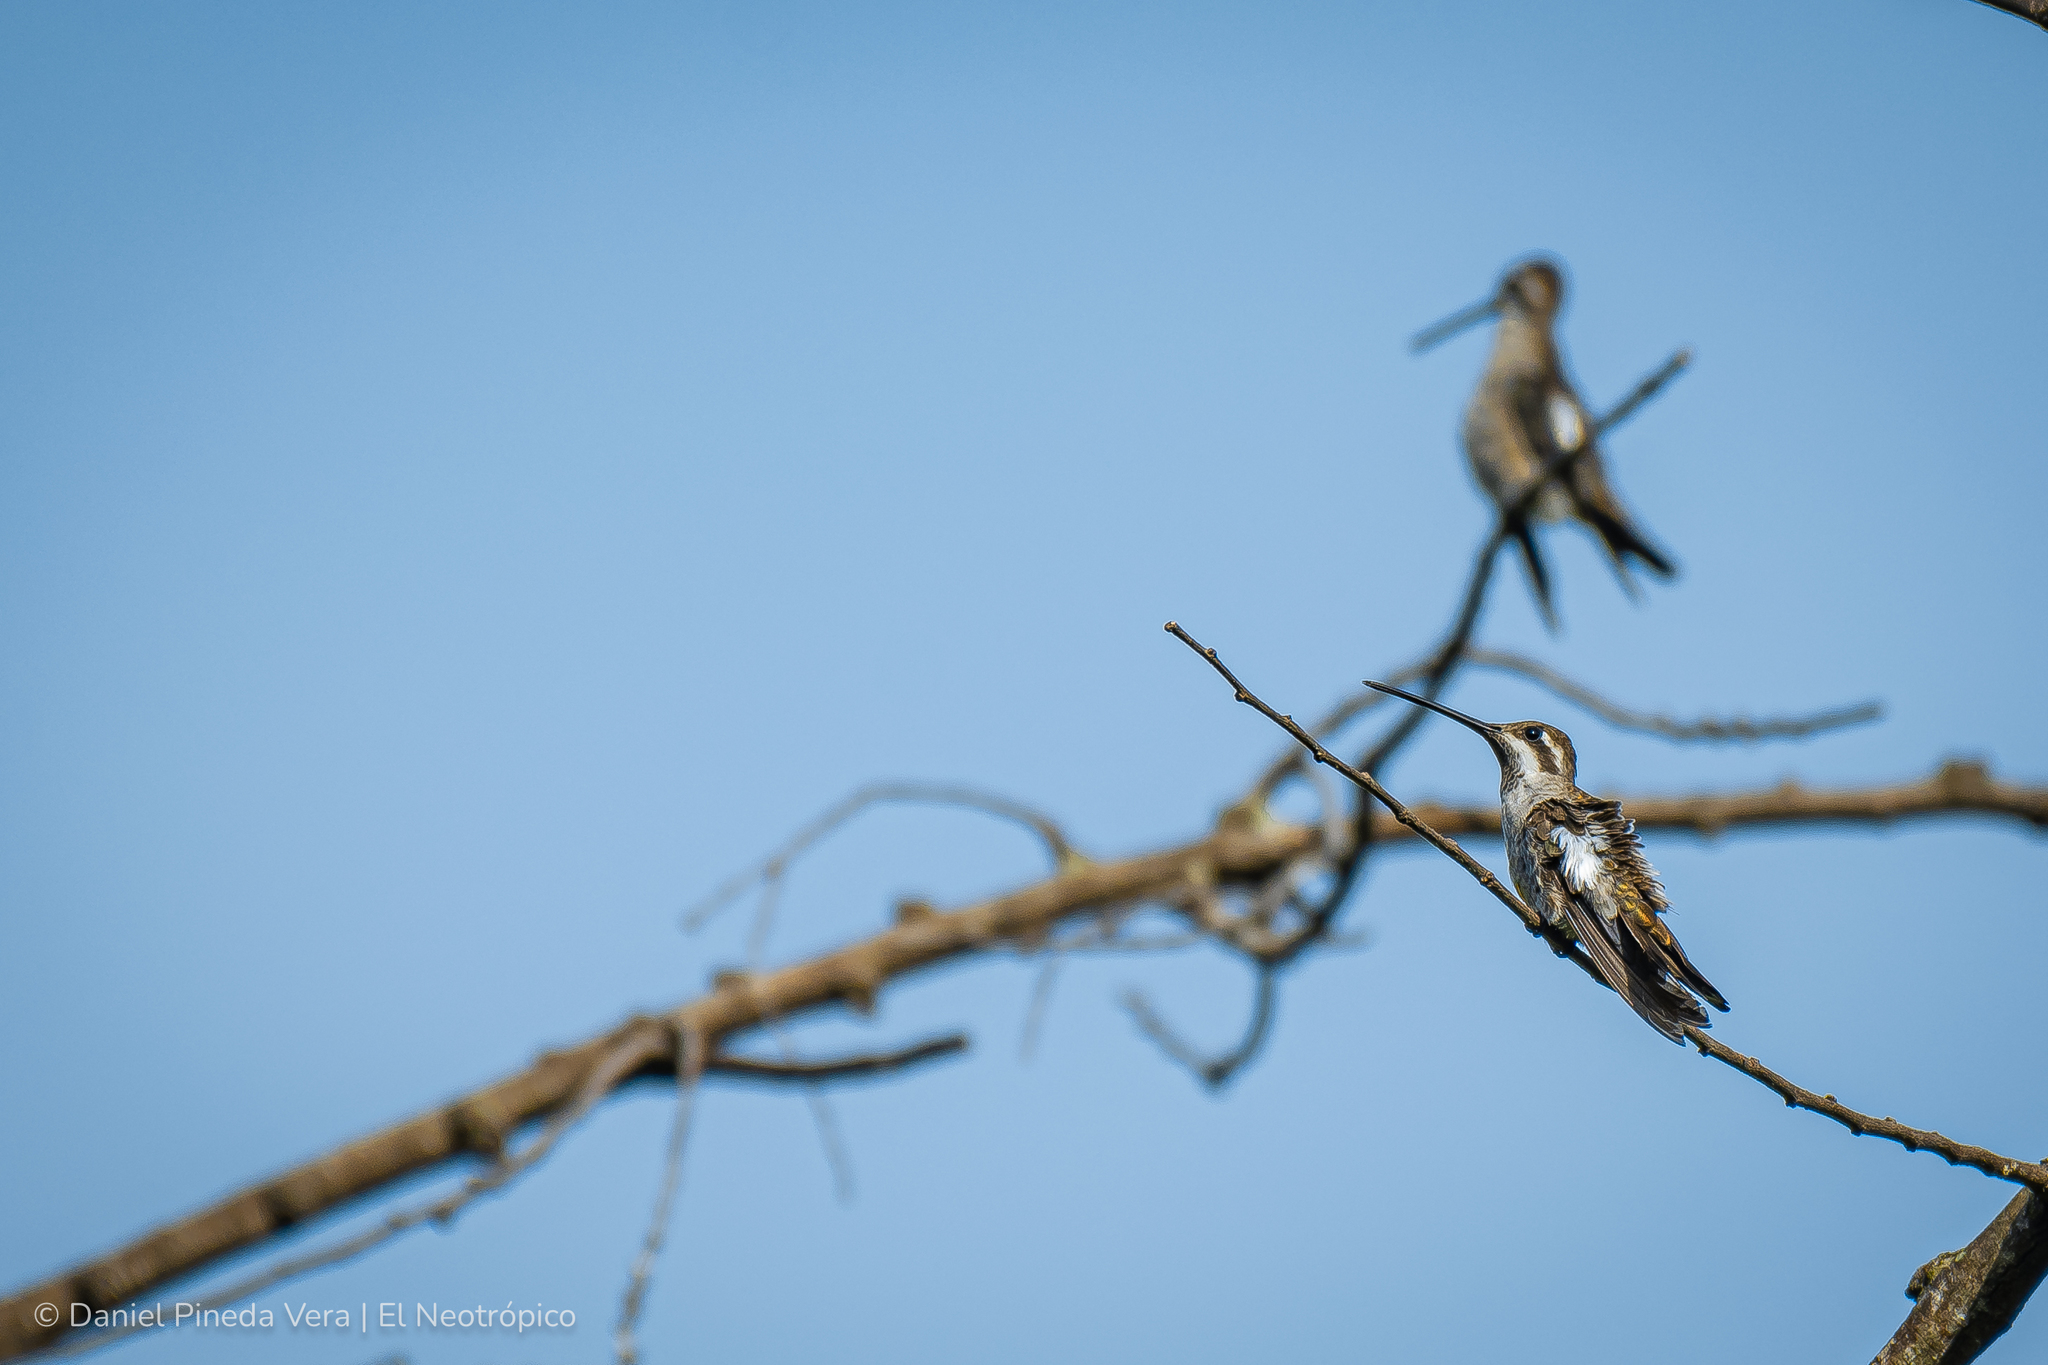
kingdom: Animalia
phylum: Chordata
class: Aves
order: Apodiformes
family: Trochilidae
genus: Heliomaster
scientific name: Heliomaster constantii
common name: Plain-capped starthroat
